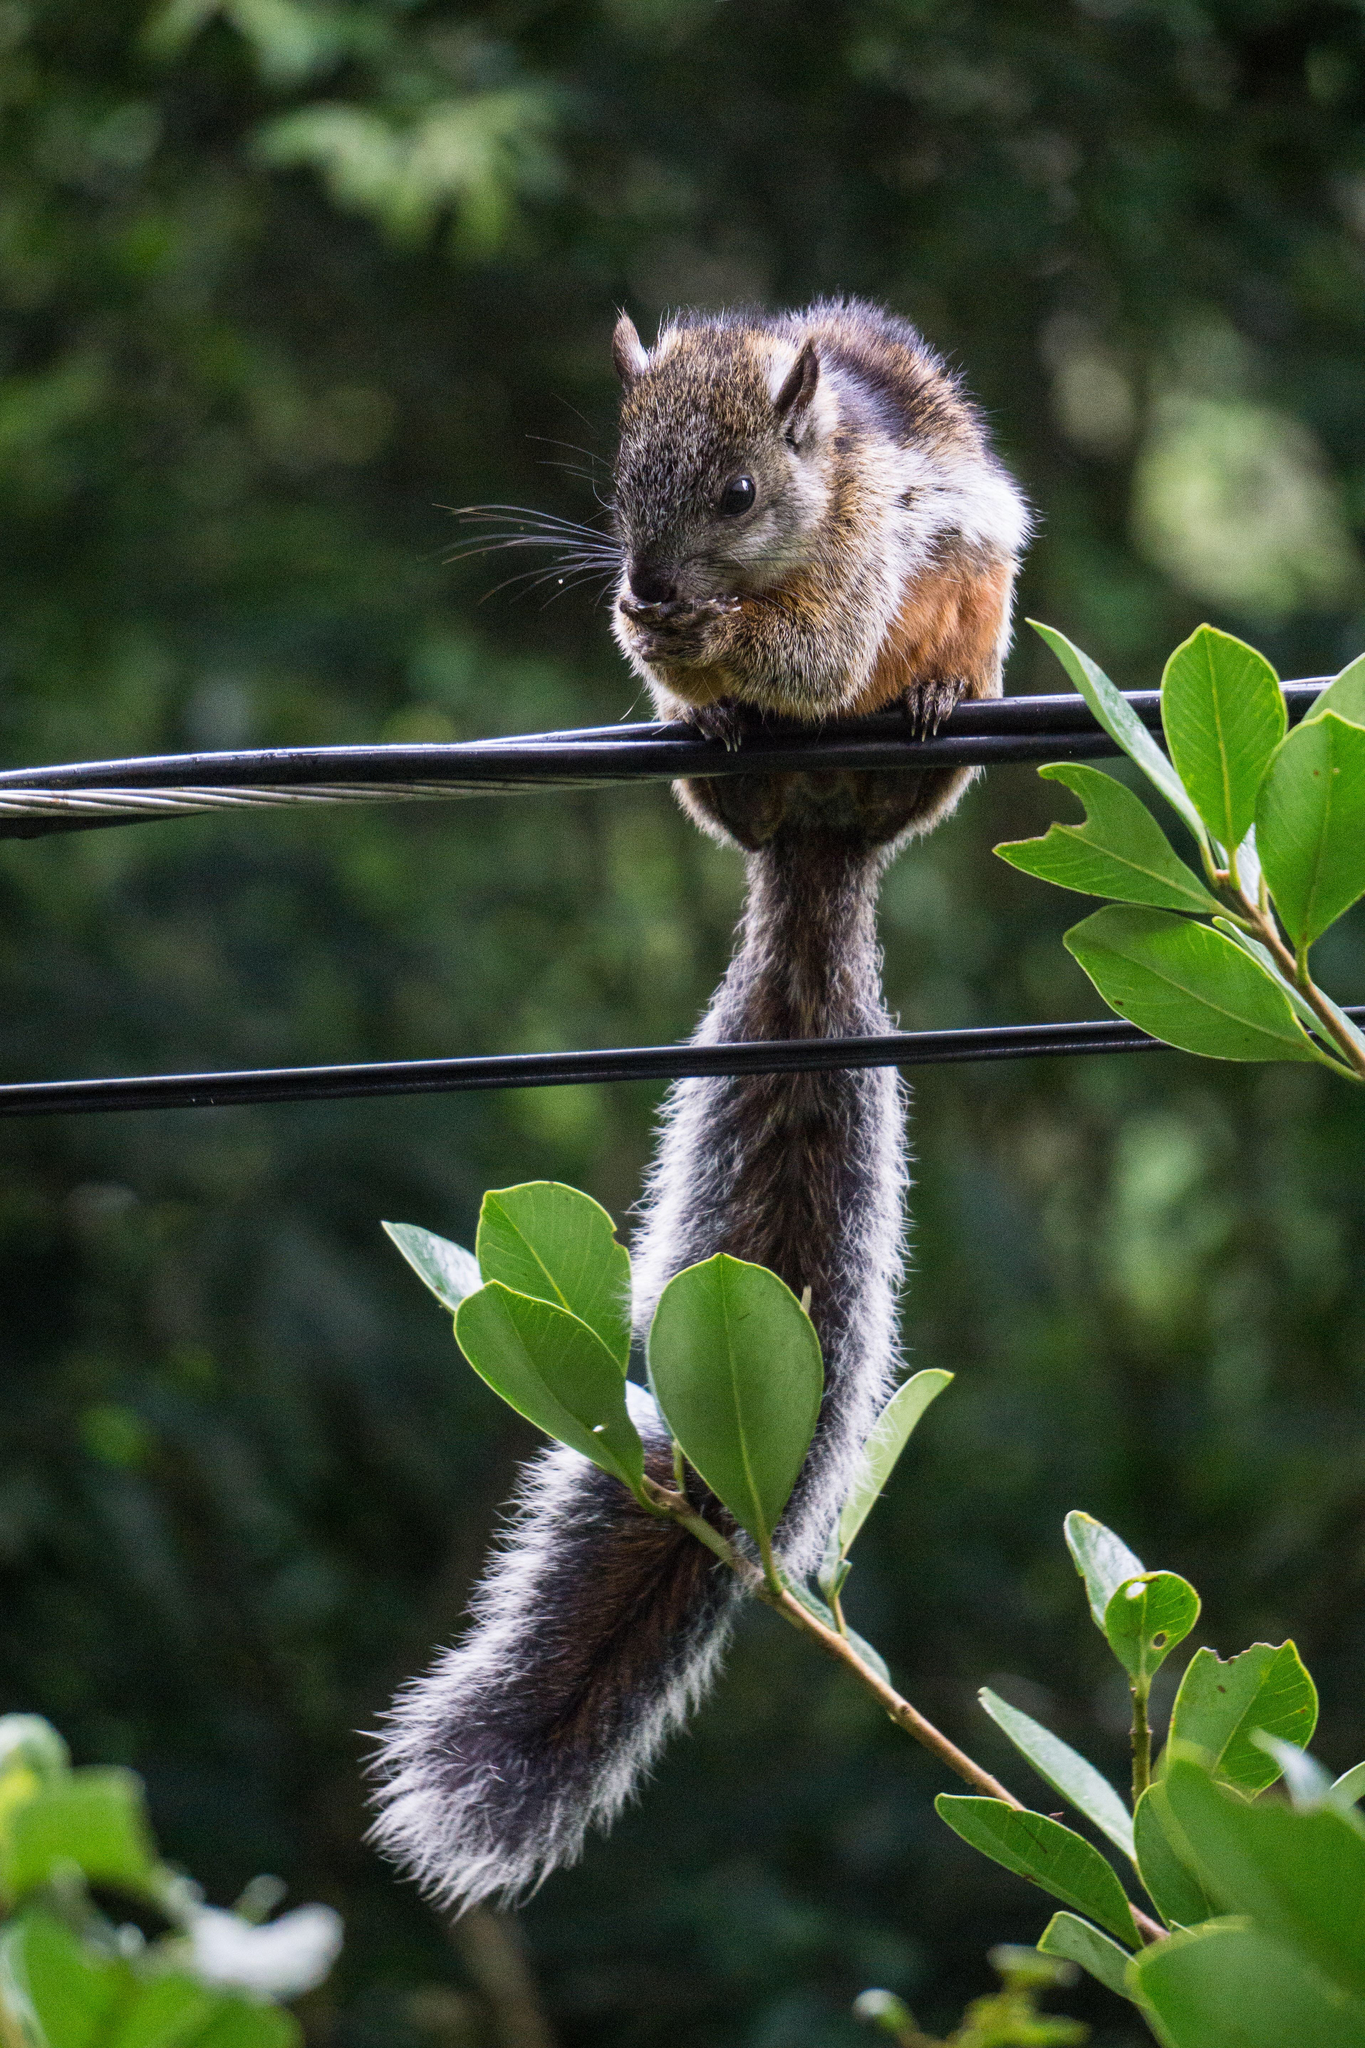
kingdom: Animalia
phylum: Chordata
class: Mammalia
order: Rodentia
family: Sciuridae
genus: Sciurus
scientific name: Sciurus variegatoides
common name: Variegated squirrel
